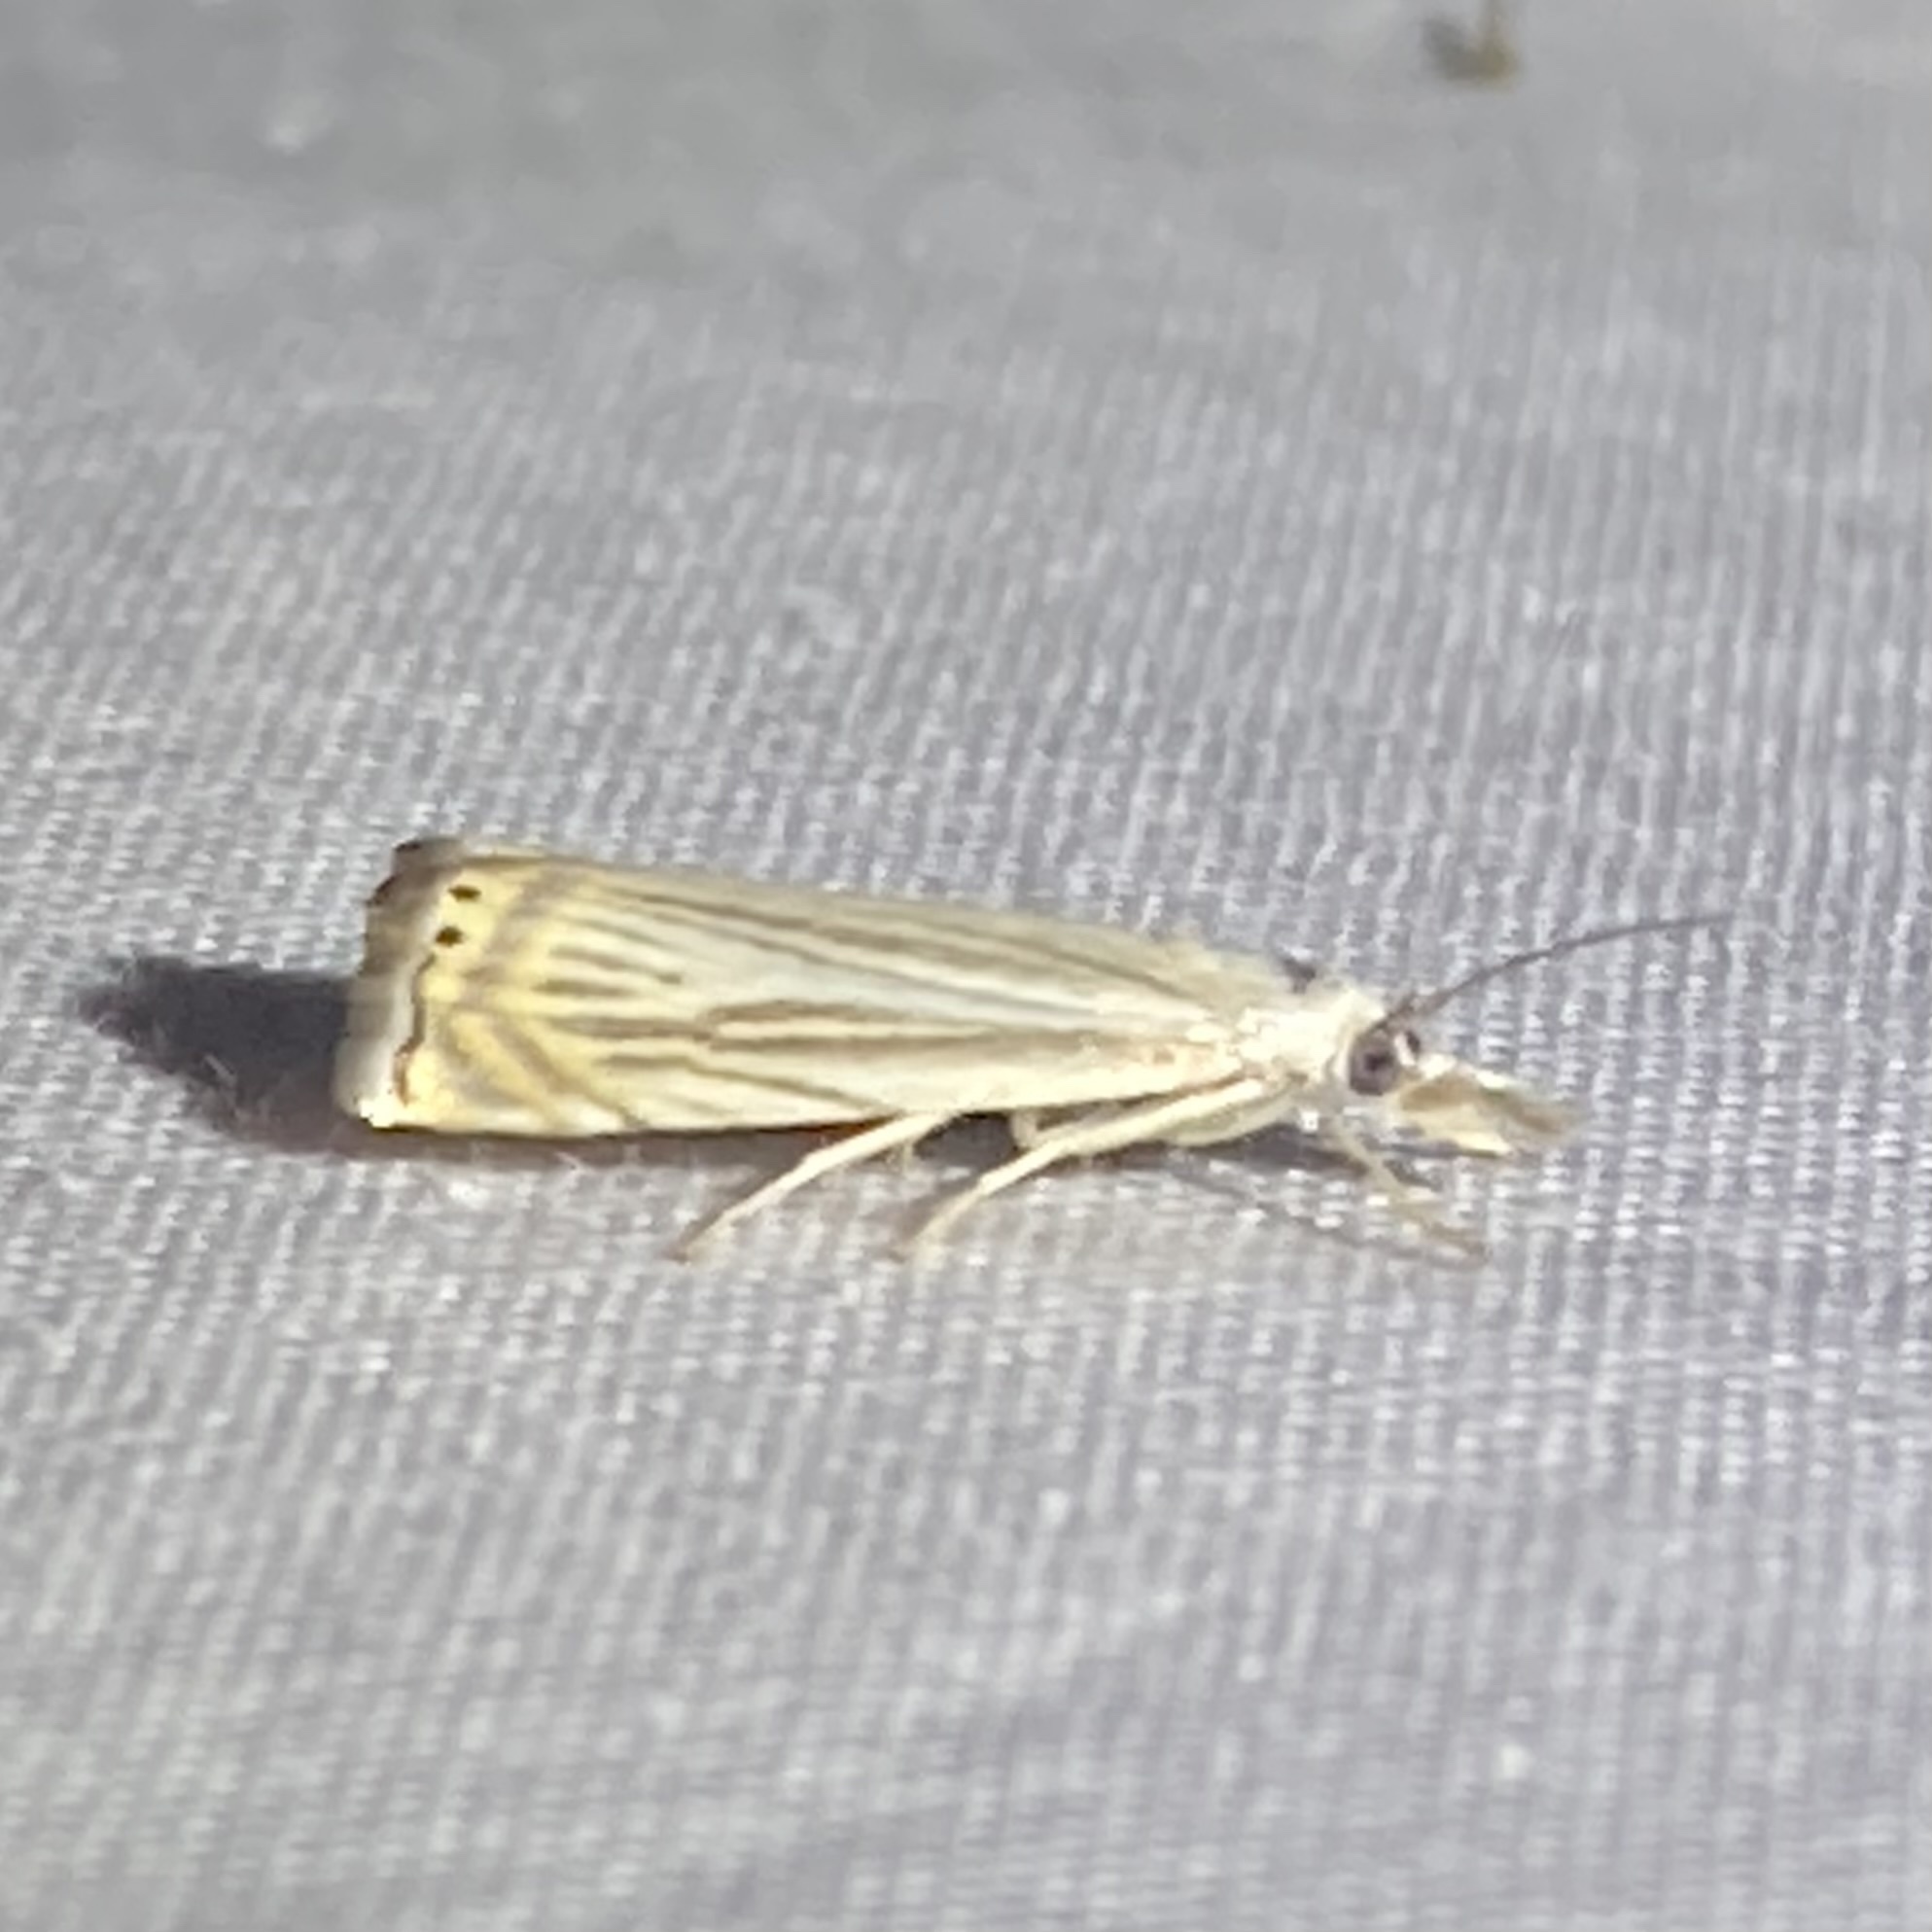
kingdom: Animalia
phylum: Arthropoda
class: Insecta
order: Lepidoptera
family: Crambidae
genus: Chrysoteuchia
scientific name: Chrysoteuchia topiarius
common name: Topiary grass-veneer
